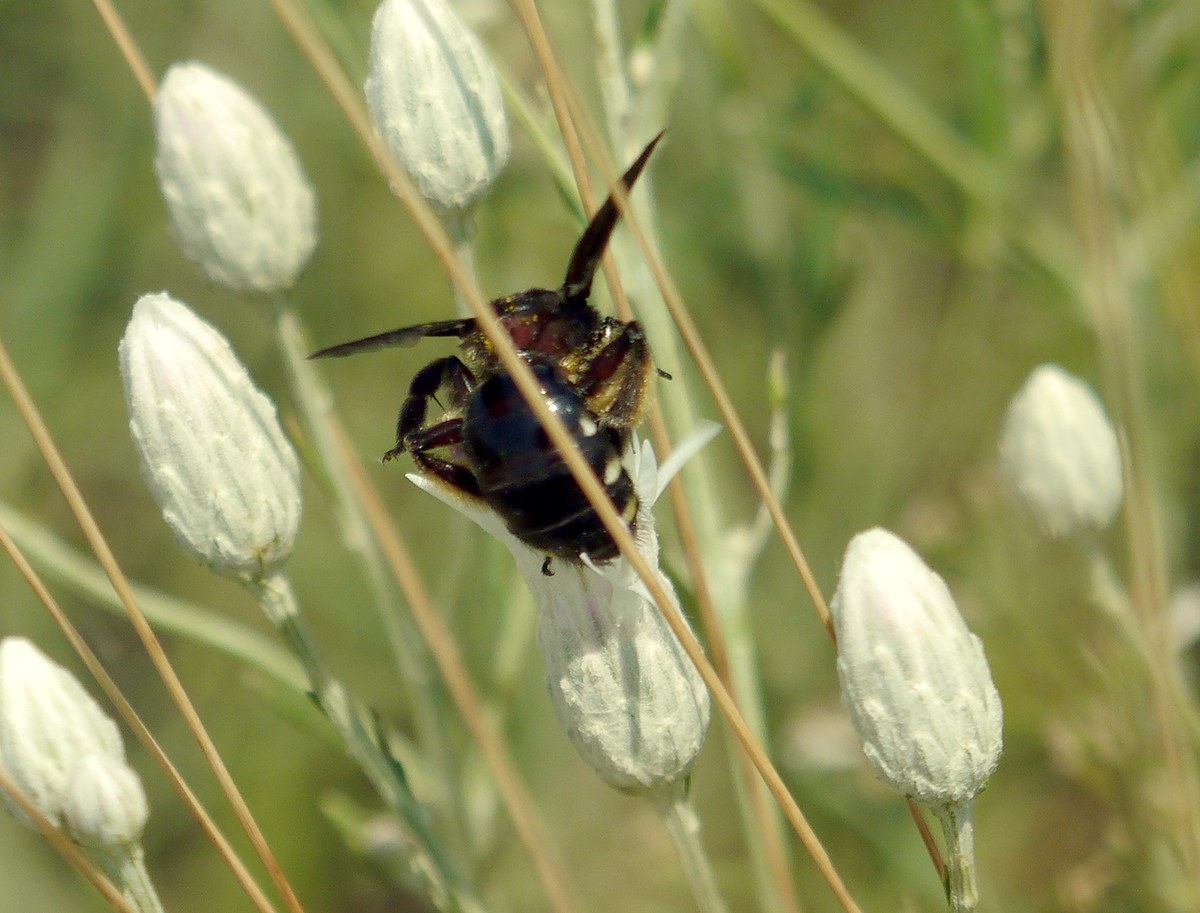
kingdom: Animalia
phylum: Arthropoda
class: Insecta
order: Hymenoptera
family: Andrenidae
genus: Andrena
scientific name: Andrena albopunctata
